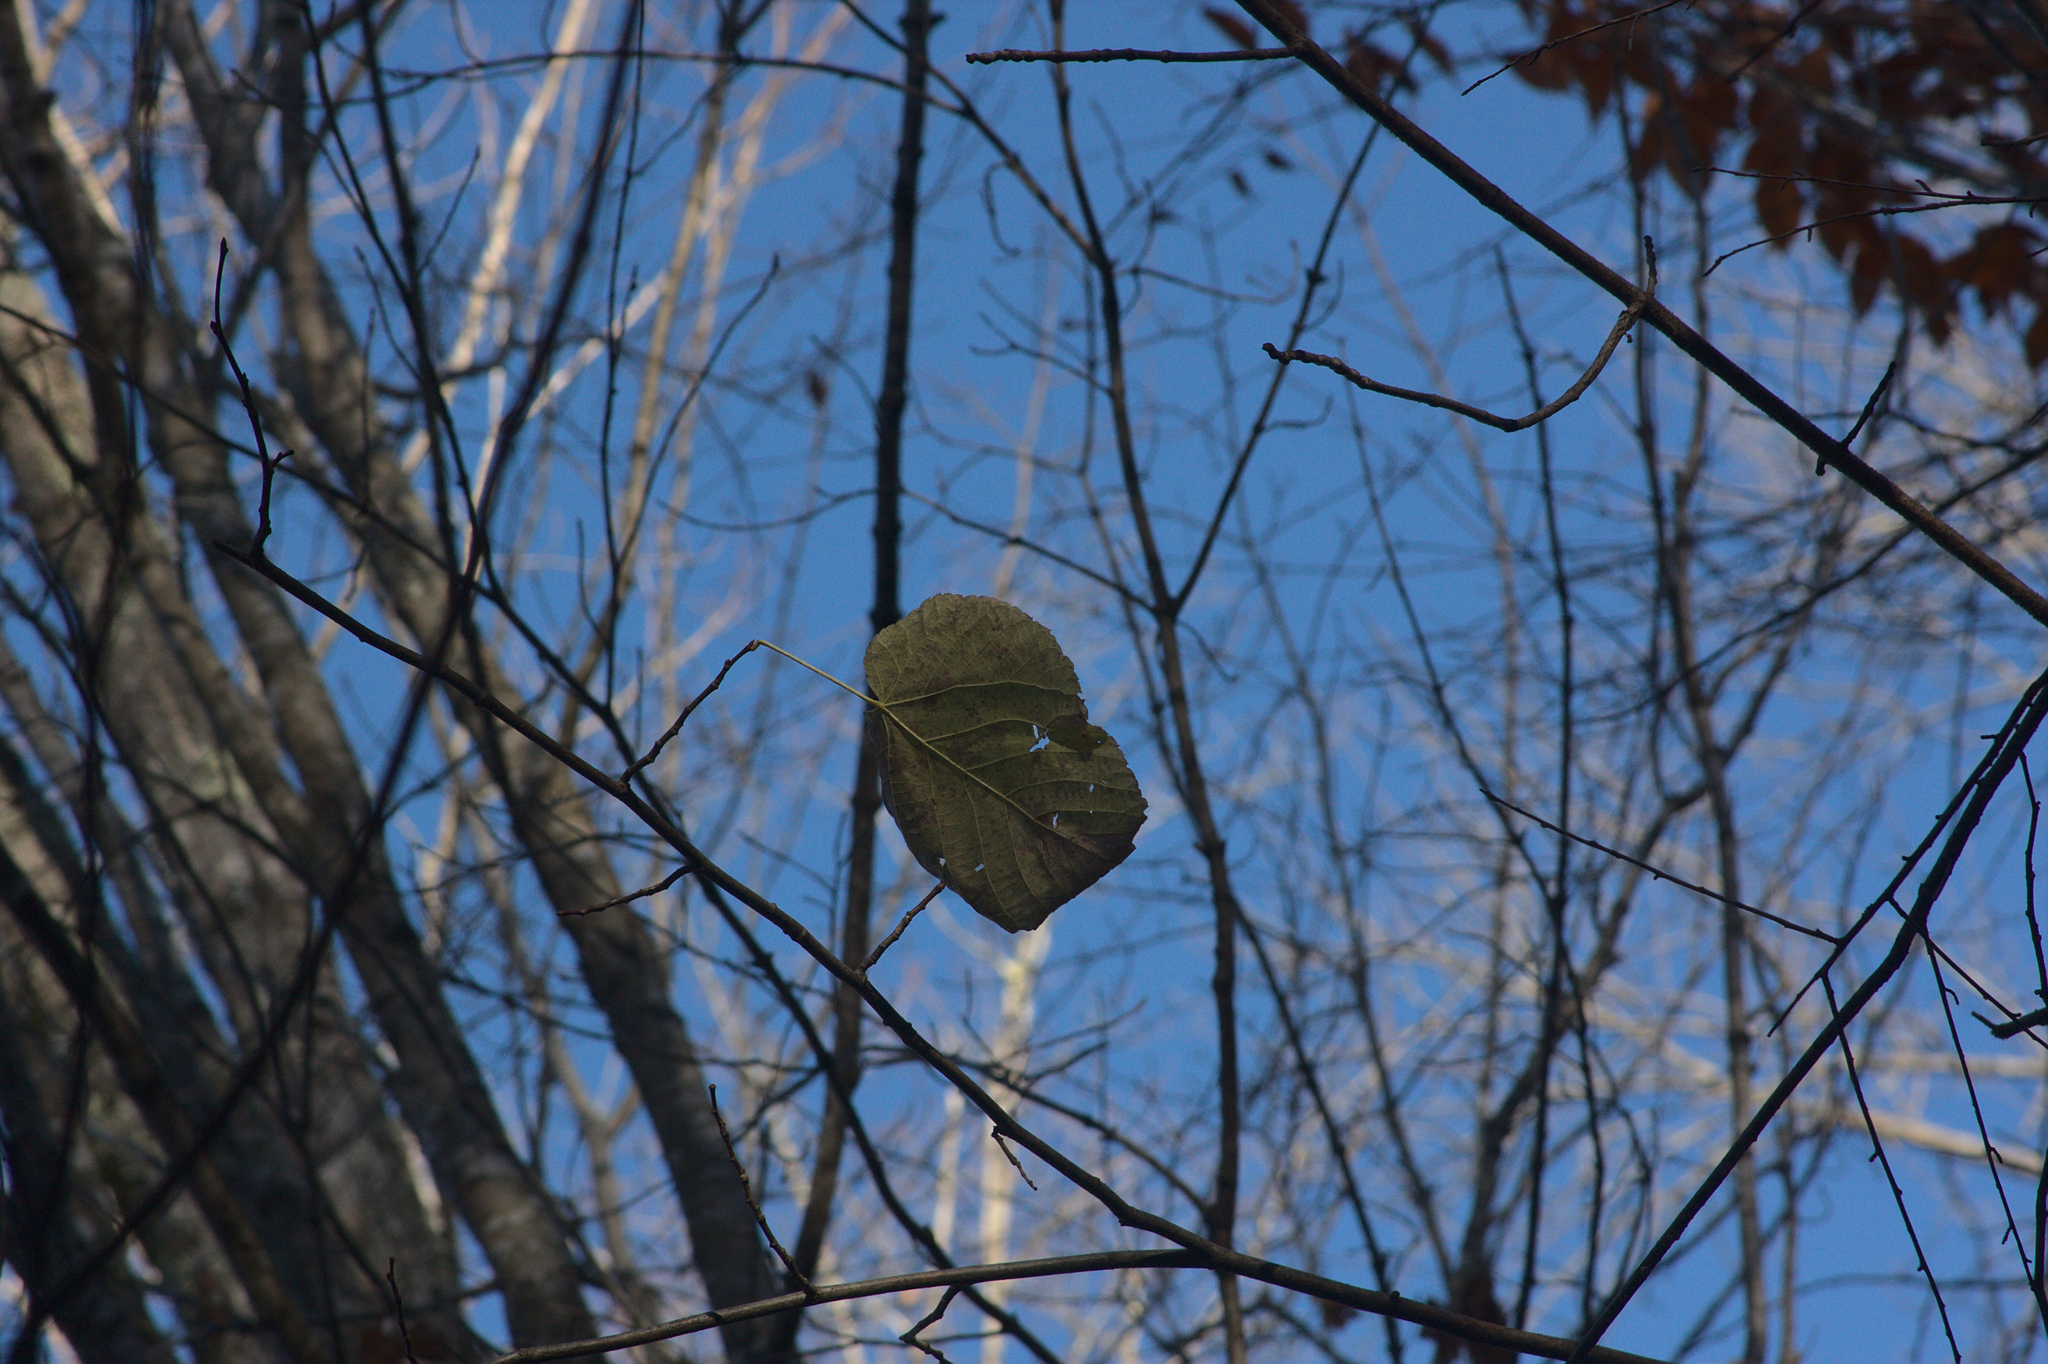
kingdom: Plantae
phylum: Tracheophyta
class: Magnoliopsida
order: Sapindales
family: Sapindaceae
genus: Acer
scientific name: Acer pensylvanicum
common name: Moosewood
